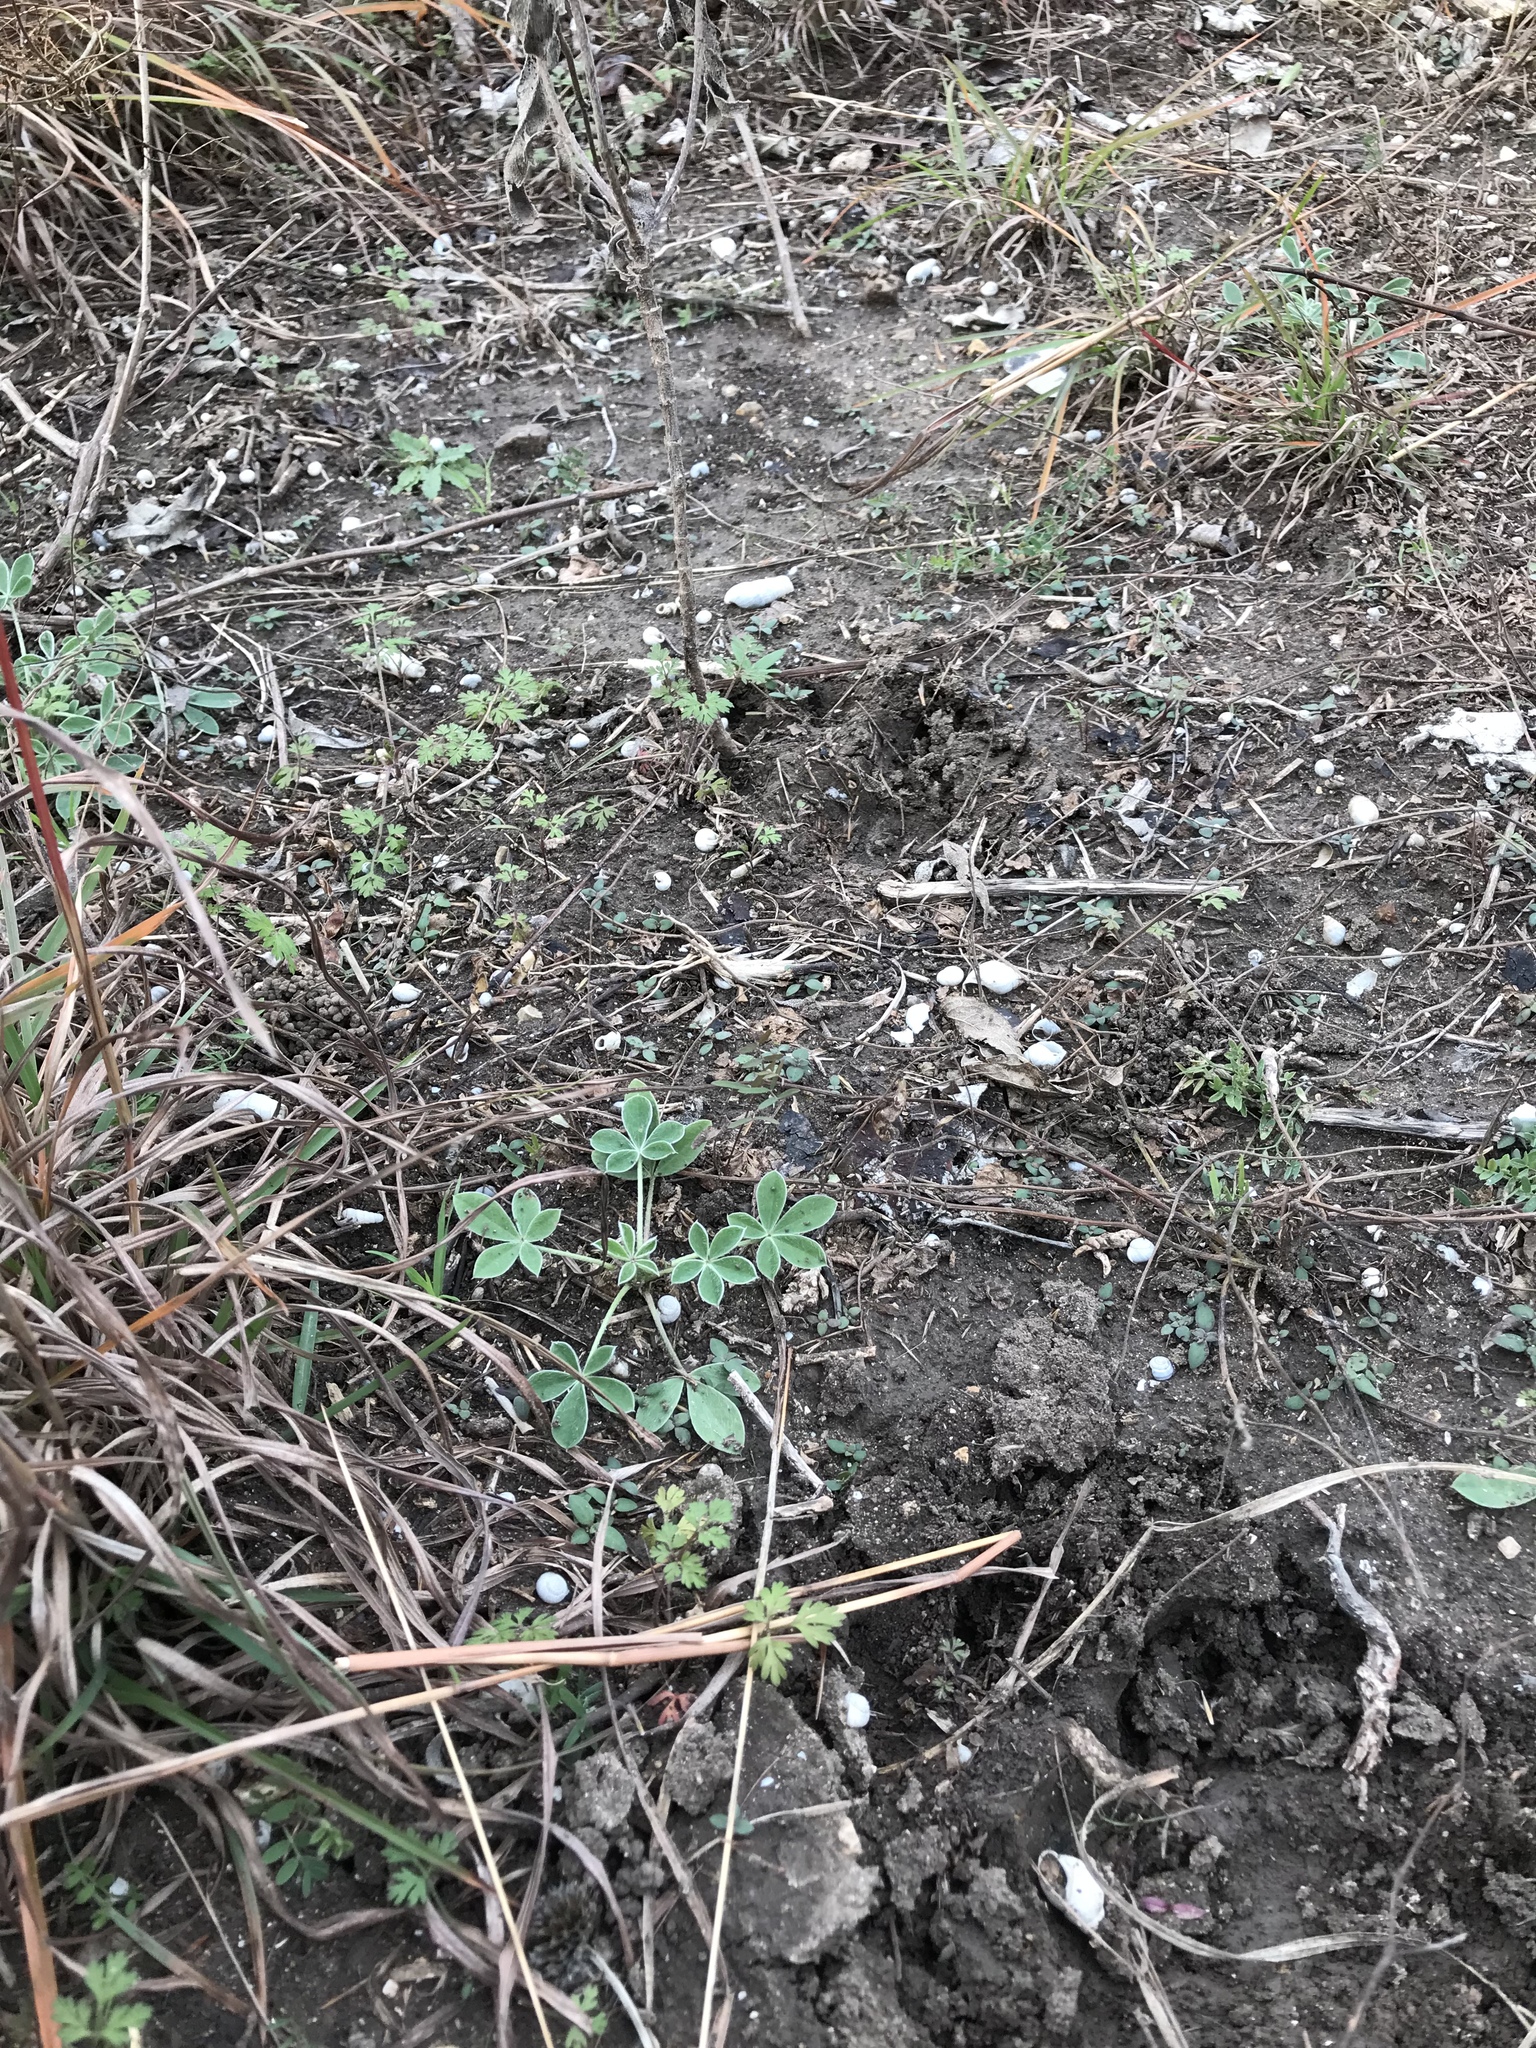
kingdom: Plantae
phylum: Tracheophyta
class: Magnoliopsida
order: Fabales
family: Fabaceae
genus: Lupinus
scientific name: Lupinus texensis
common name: Texas bluebonnet
